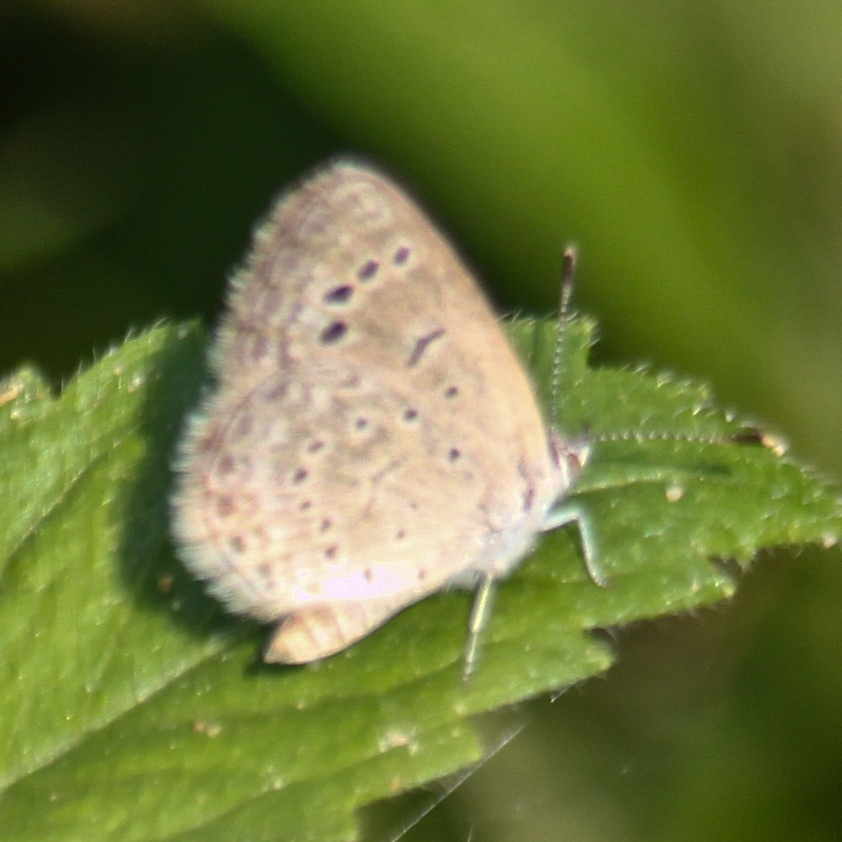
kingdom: Animalia
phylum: Arthropoda
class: Insecta
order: Lepidoptera
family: Lycaenidae
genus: Zizeeria
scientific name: Zizeeria karsandra
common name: Dark grass blue
